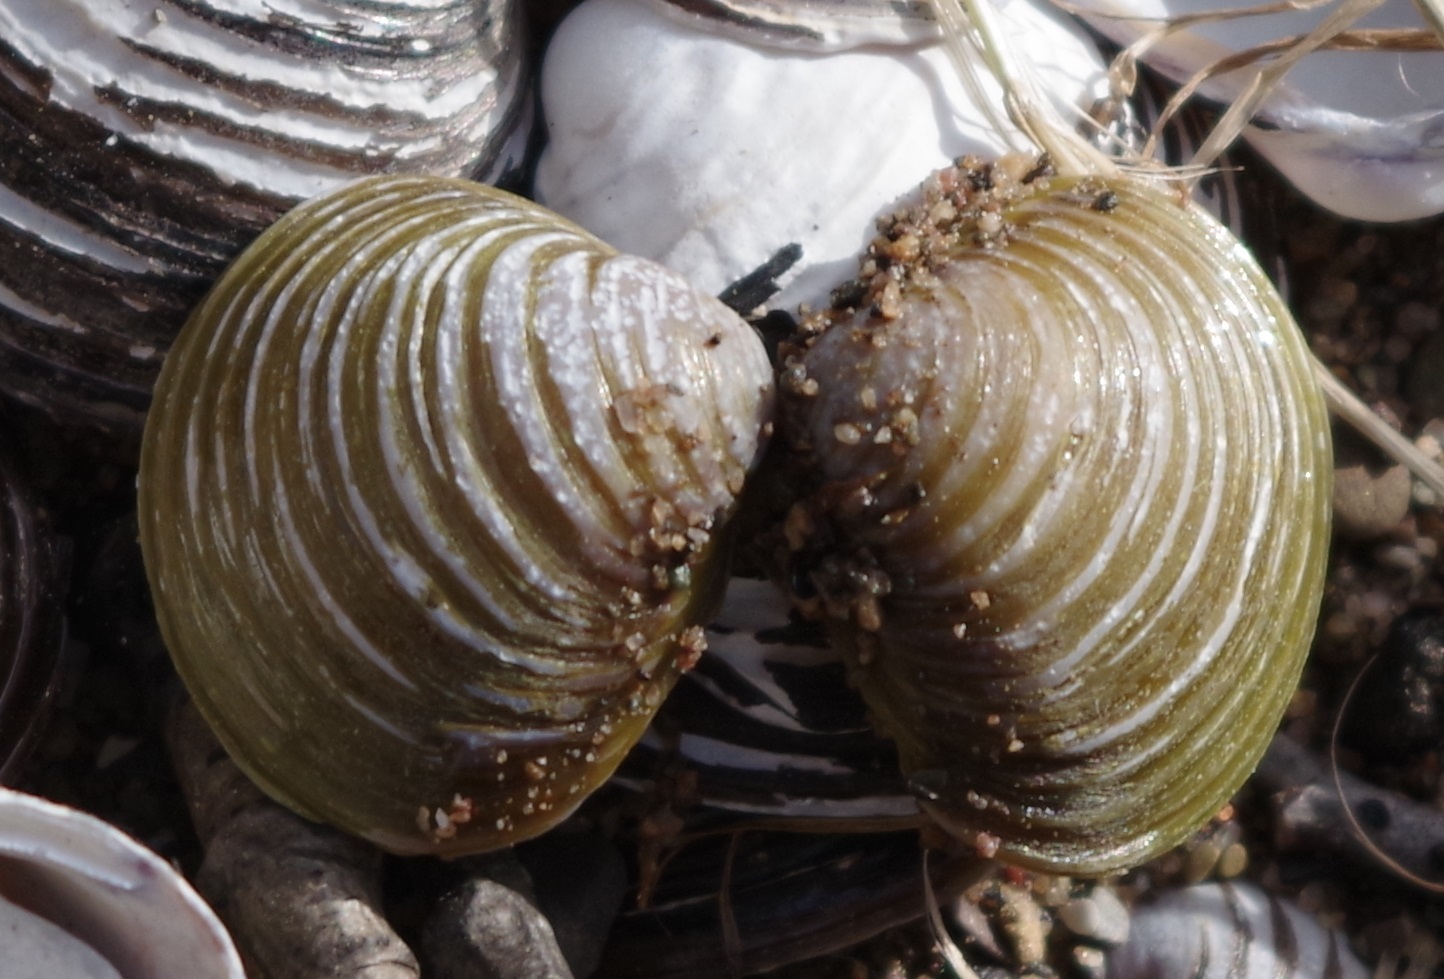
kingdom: Animalia
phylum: Mollusca
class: Bivalvia
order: Venerida
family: Cyrenidae
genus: Corbicula
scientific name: Corbicula fluminea
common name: Asian clam
